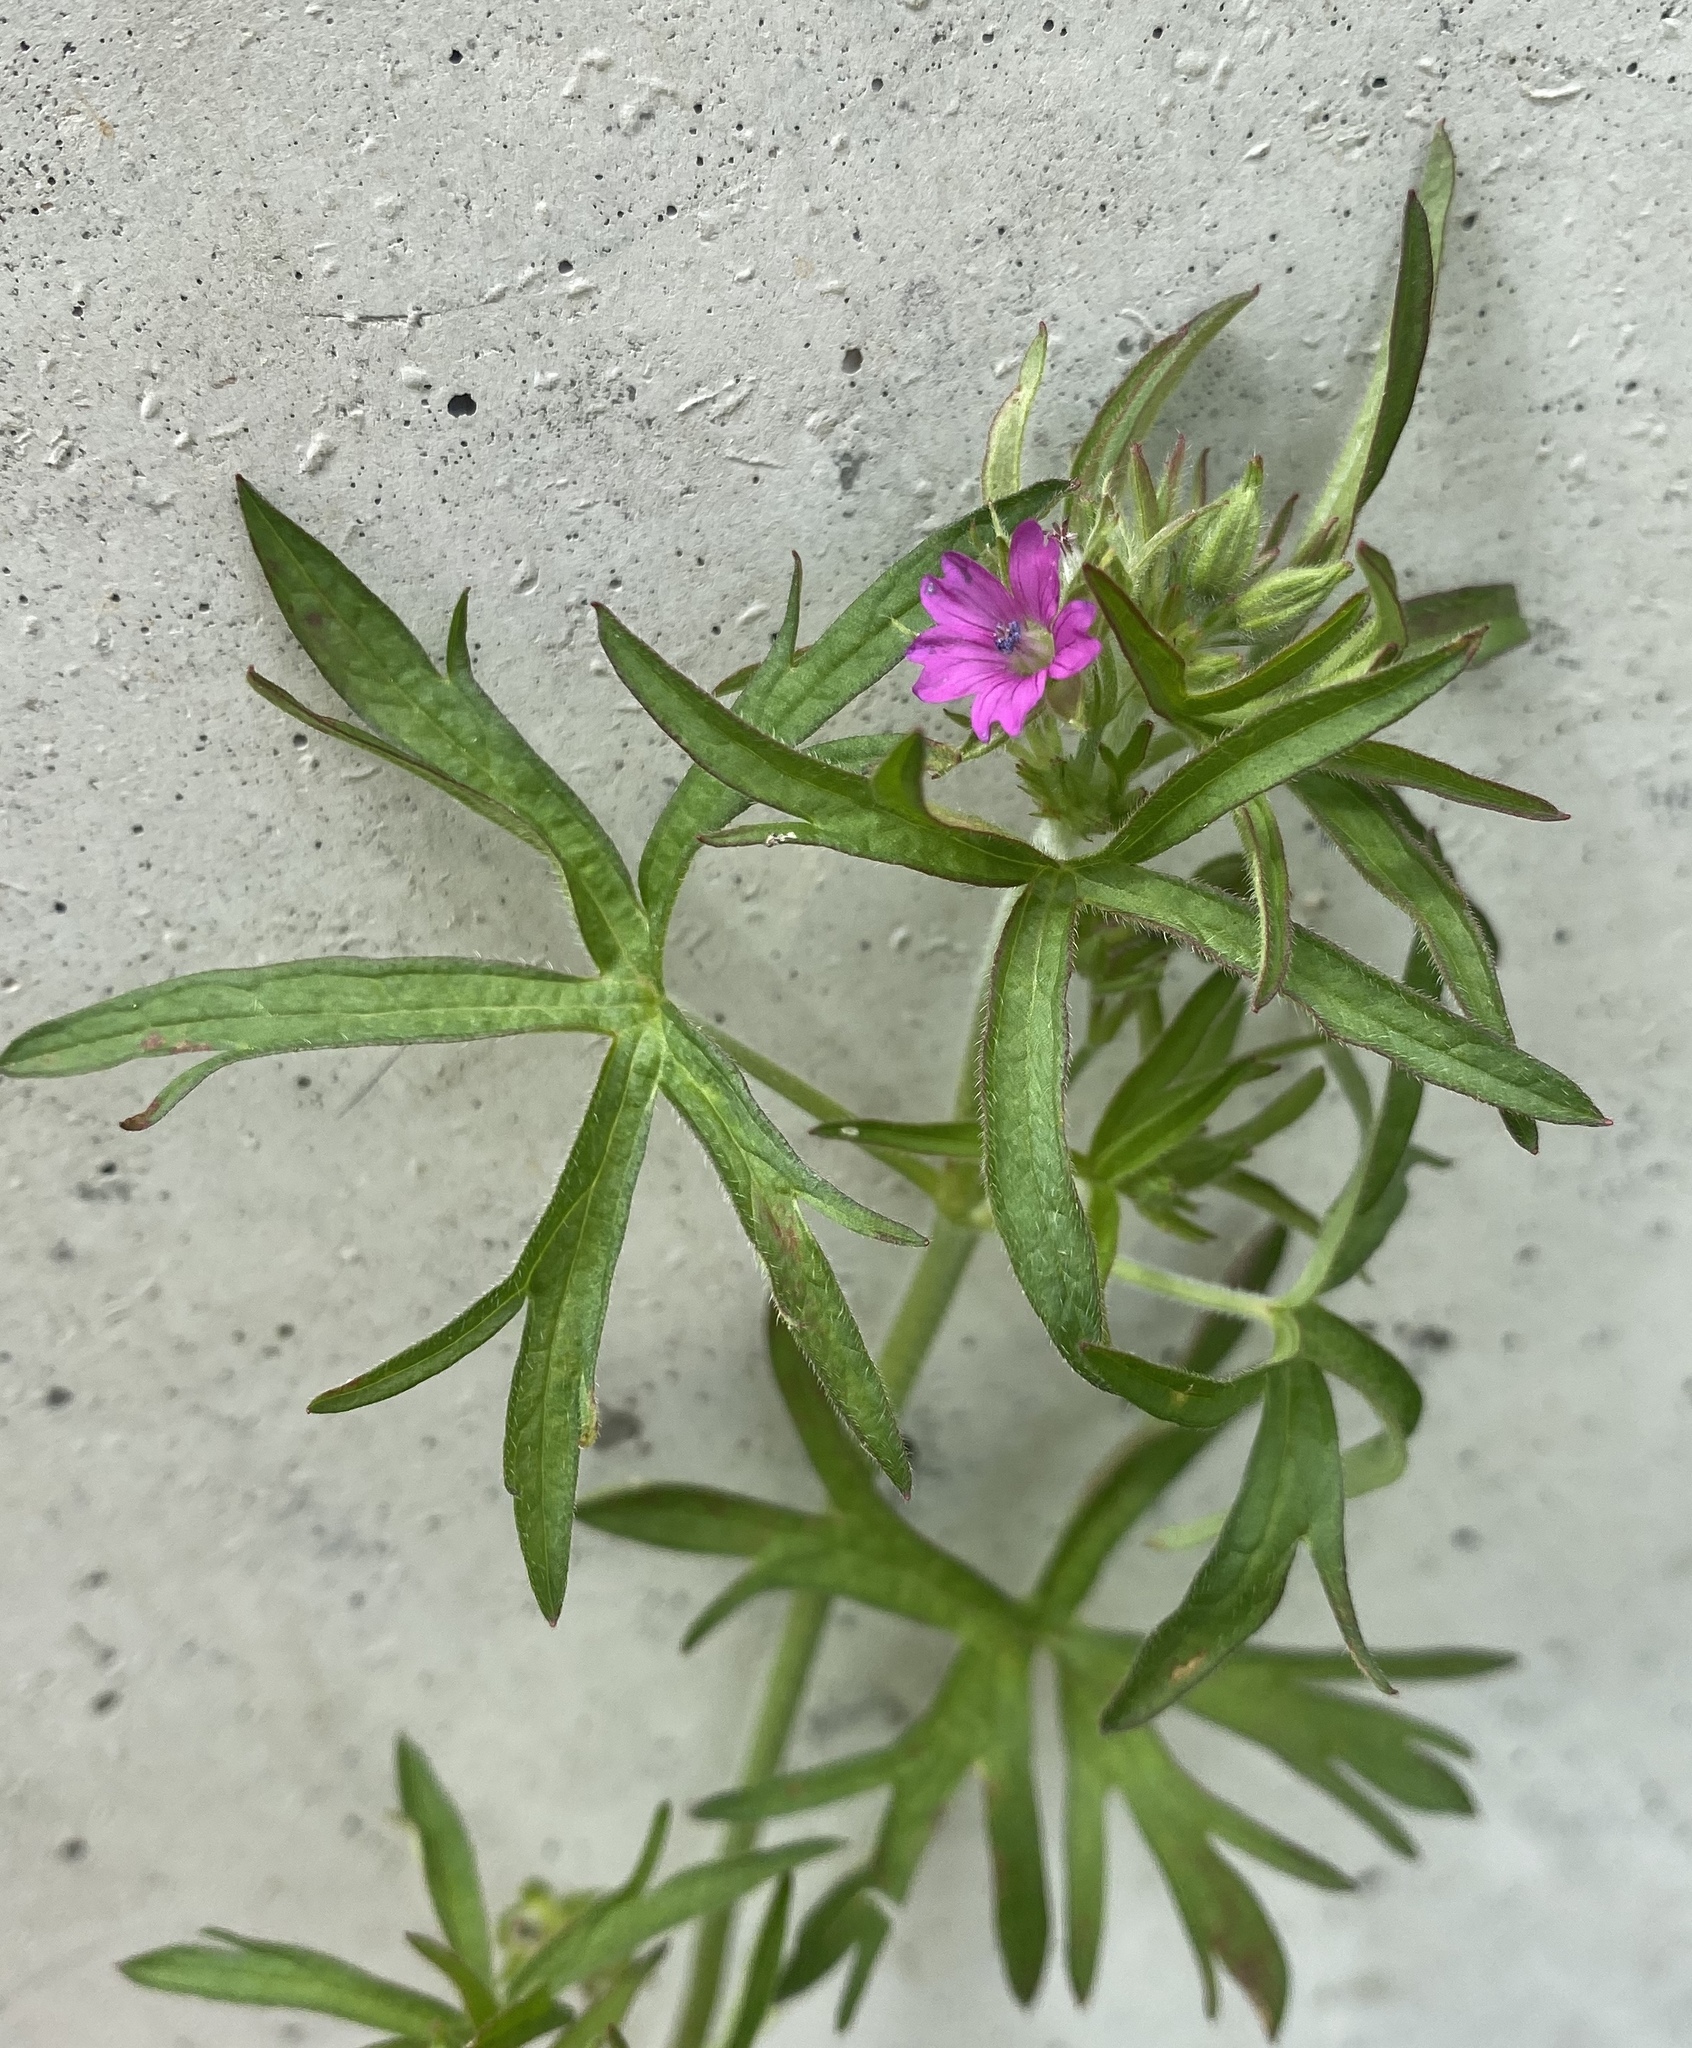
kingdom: Plantae
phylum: Tracheophyta
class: Magnoliopsida
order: Geraniales
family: Geraniaceae
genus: Geranium
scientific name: Geranium dissectum
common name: Cut-leaved crane's-bill
